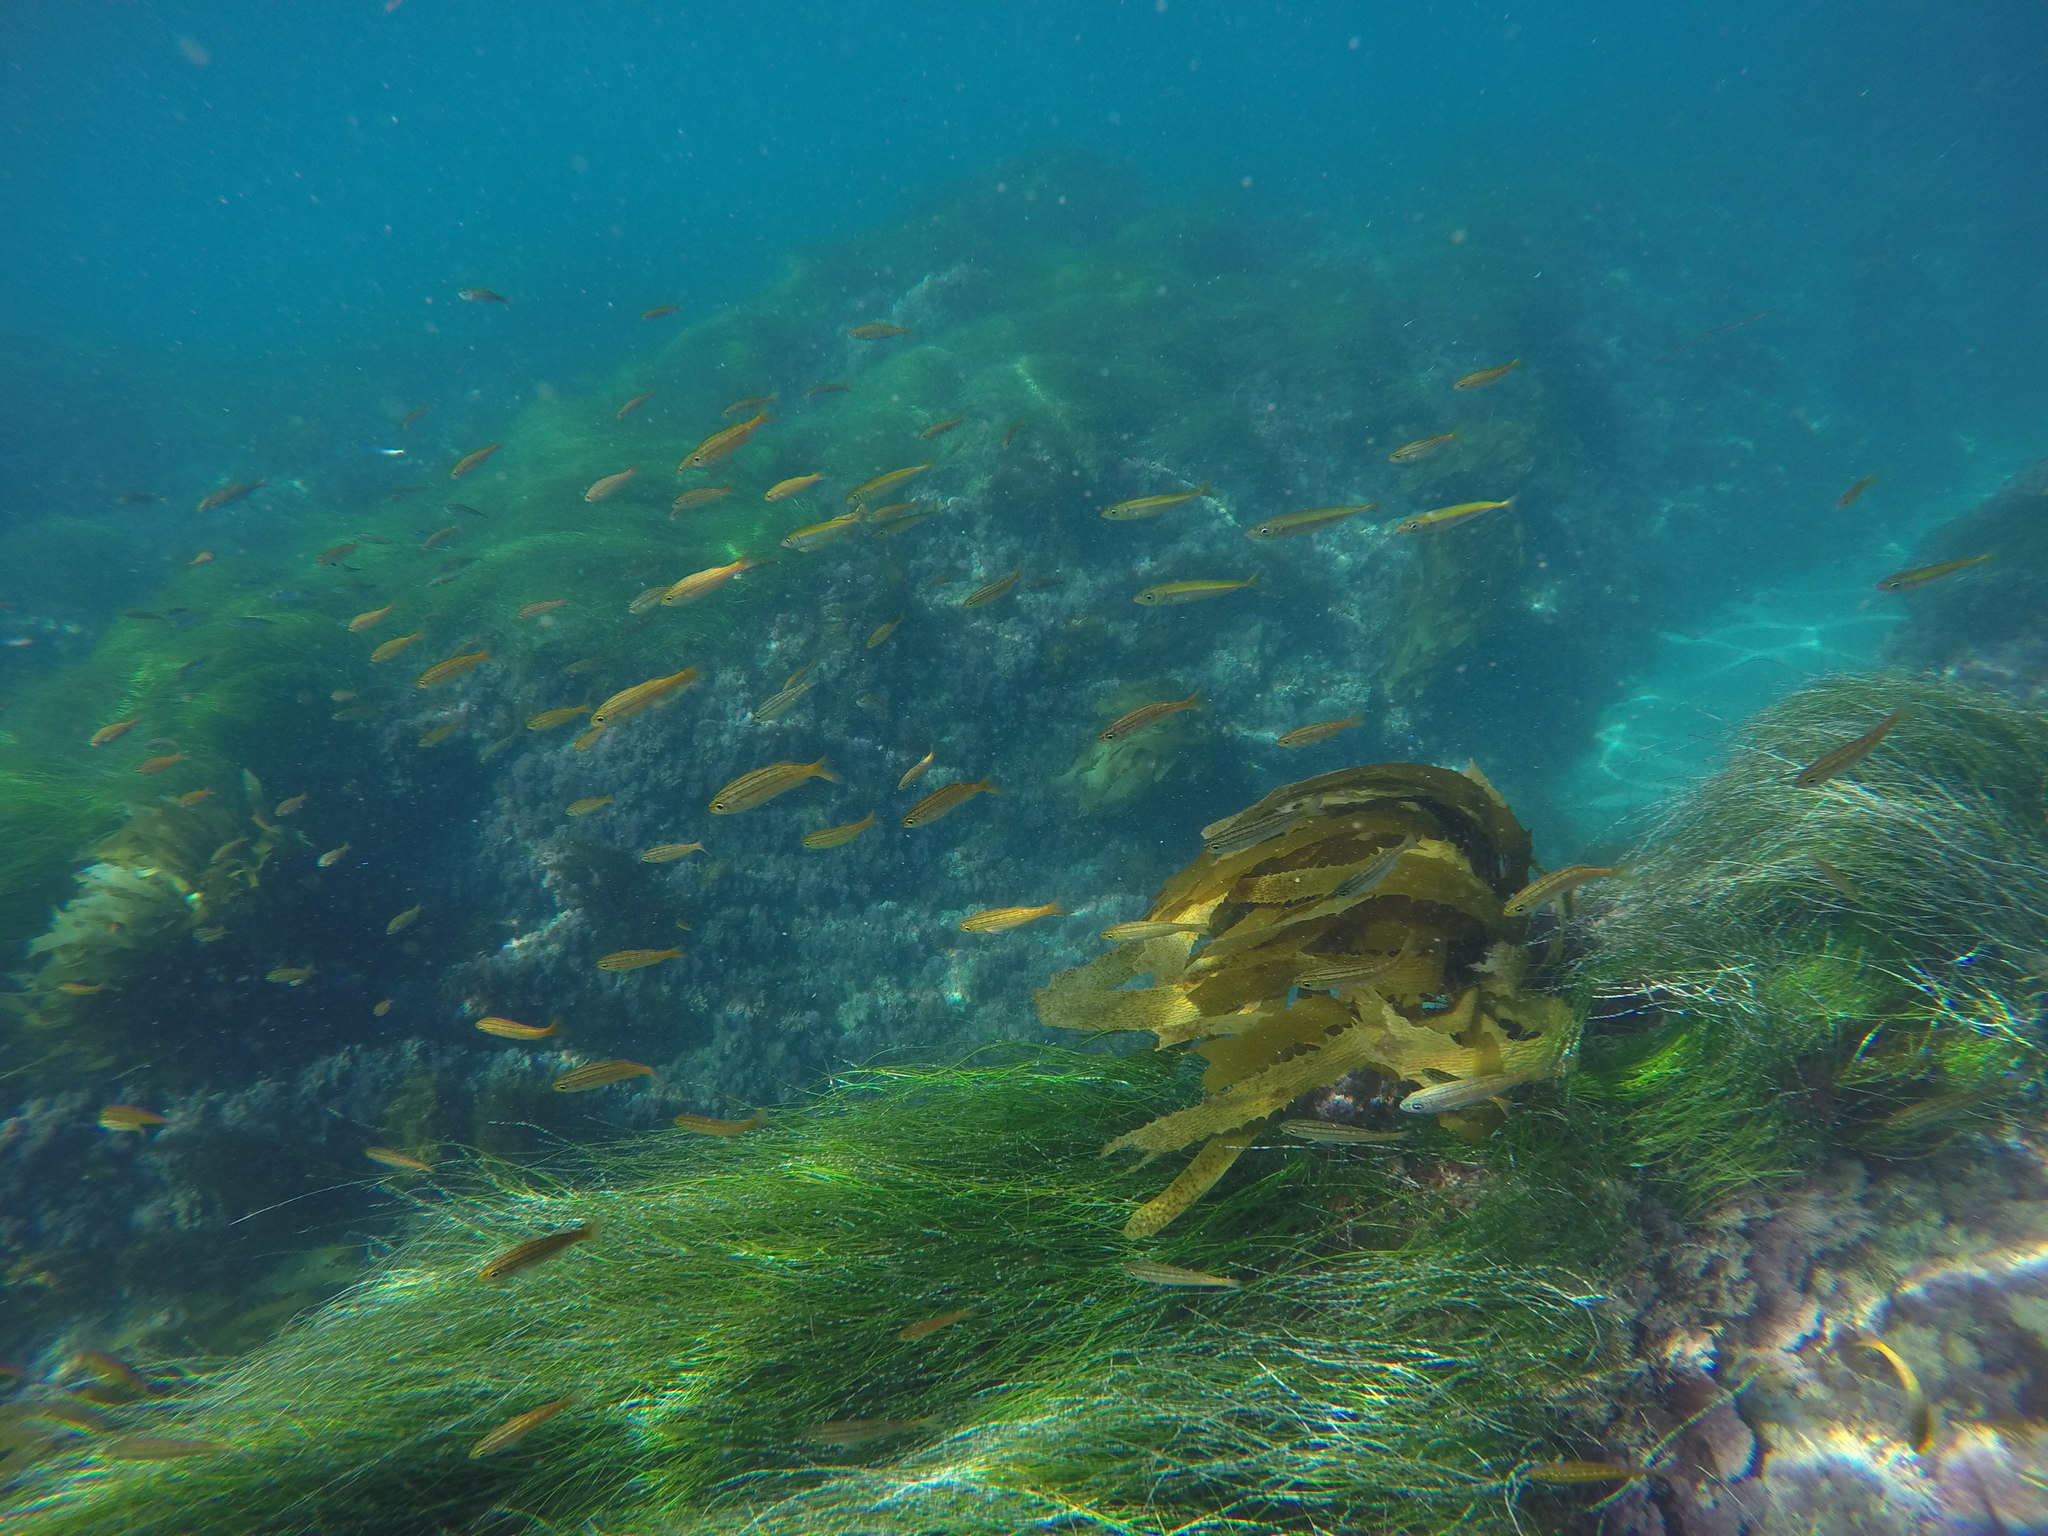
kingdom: Animalia
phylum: Chordata
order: Perciformes
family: Haemulidae
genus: Haemulon
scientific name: Haemulon californiensis
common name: Californian salema
